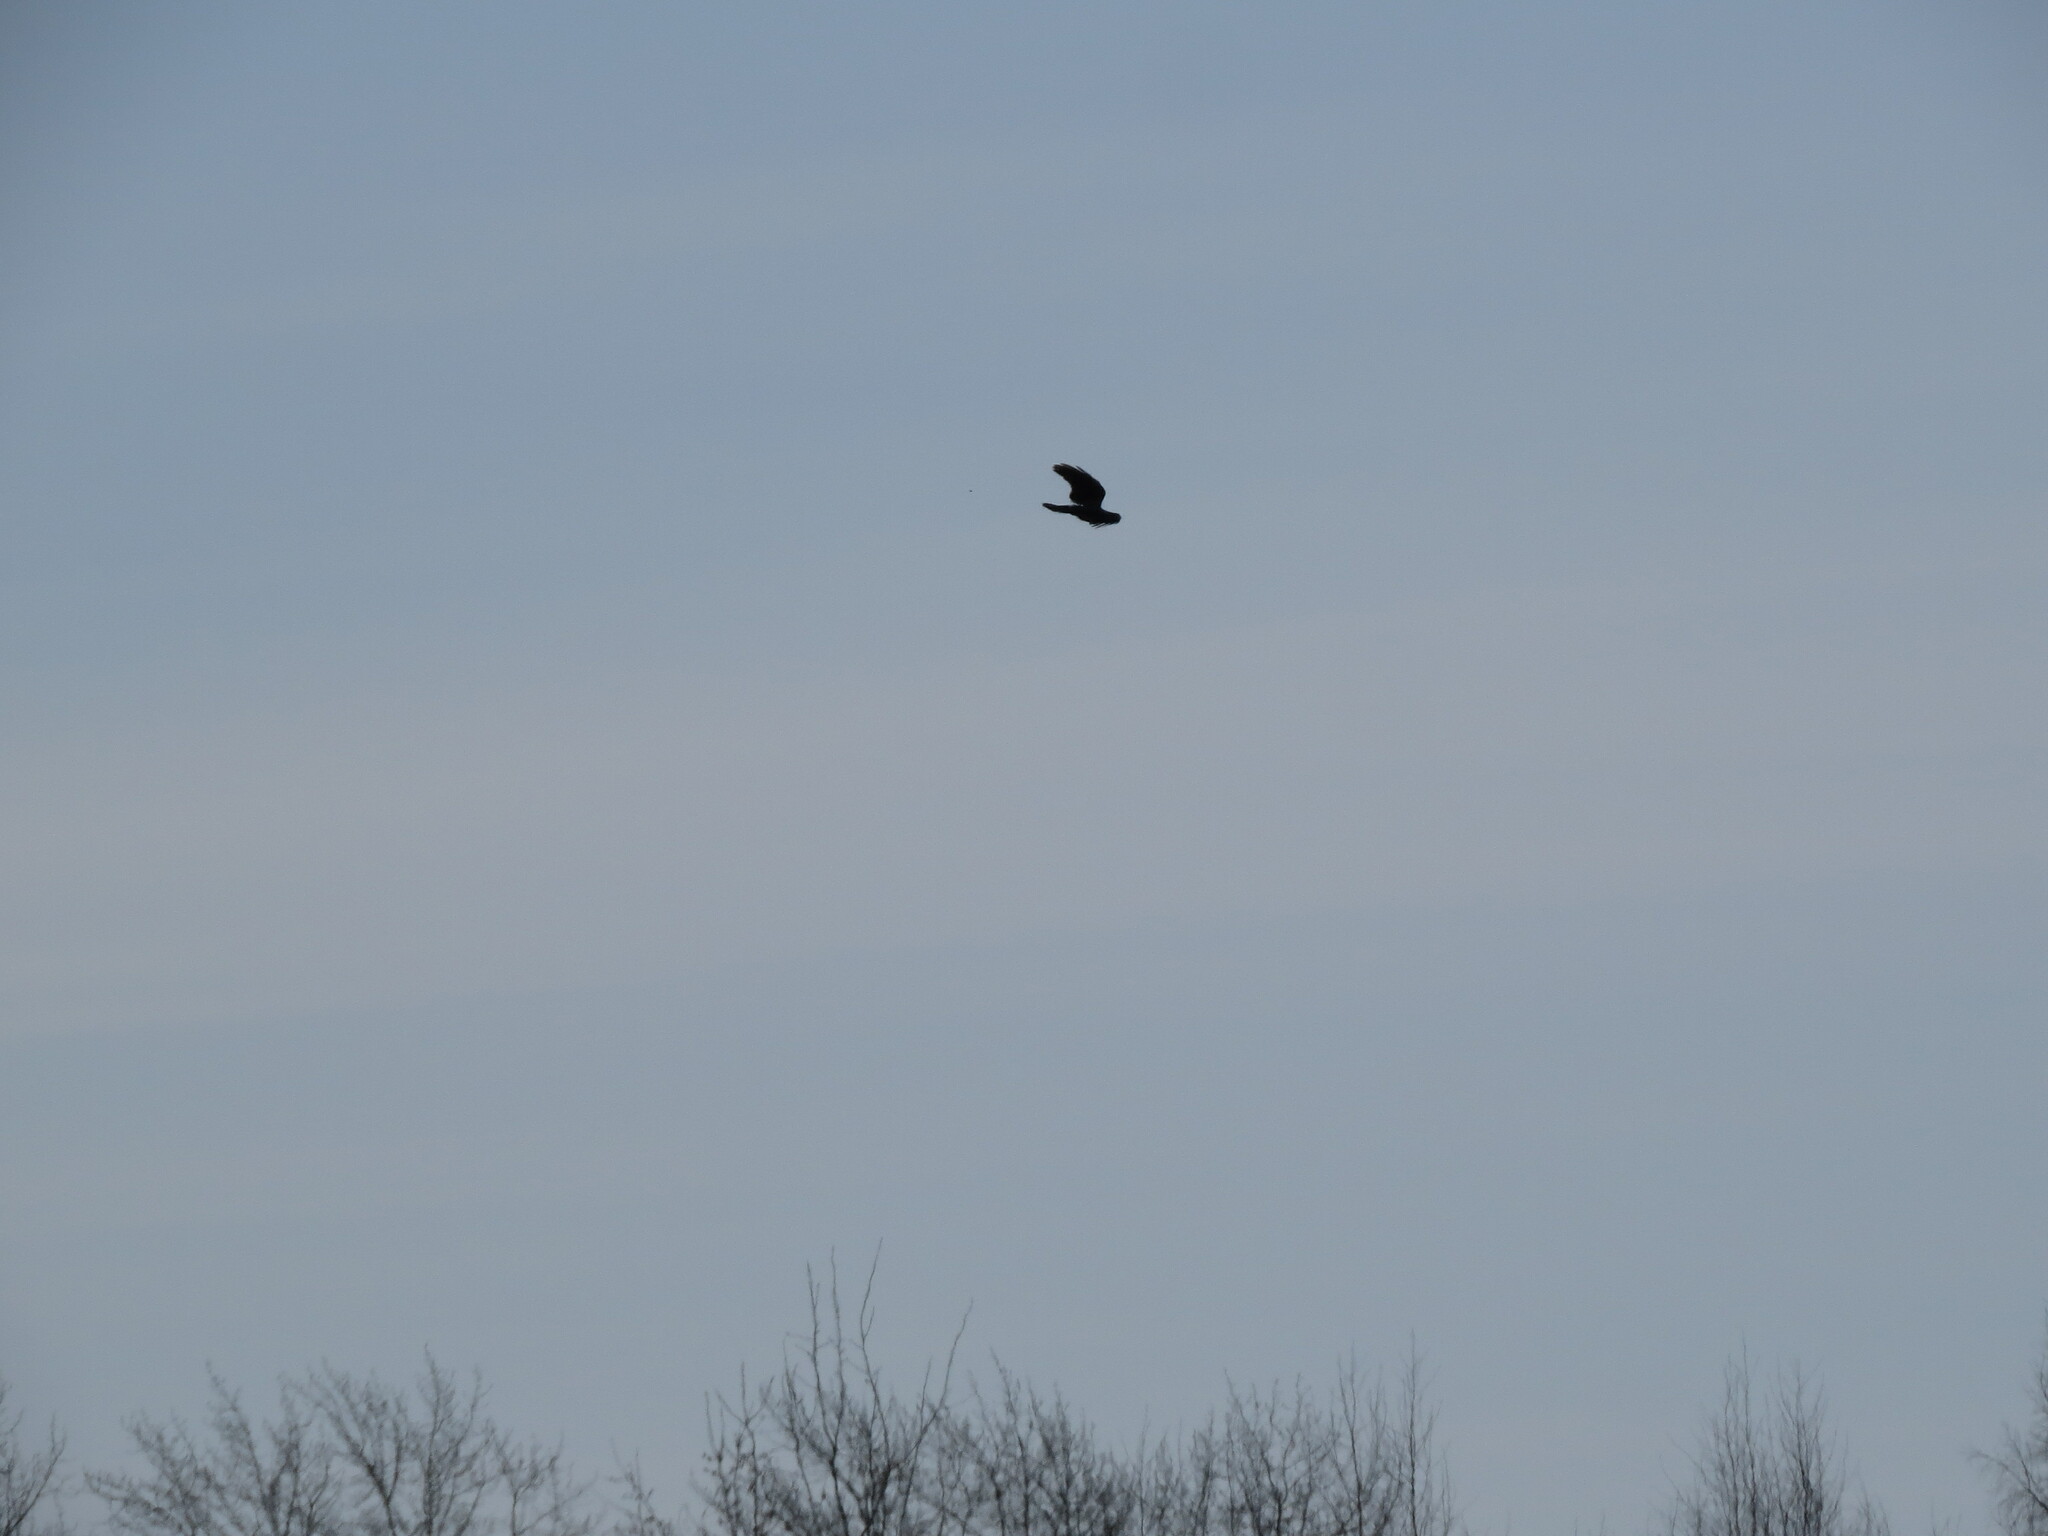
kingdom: Animalia
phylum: Chordata
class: Aves
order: Passeriformes
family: Corvidae
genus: Corvus
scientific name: Corvus corax
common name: Common raven
